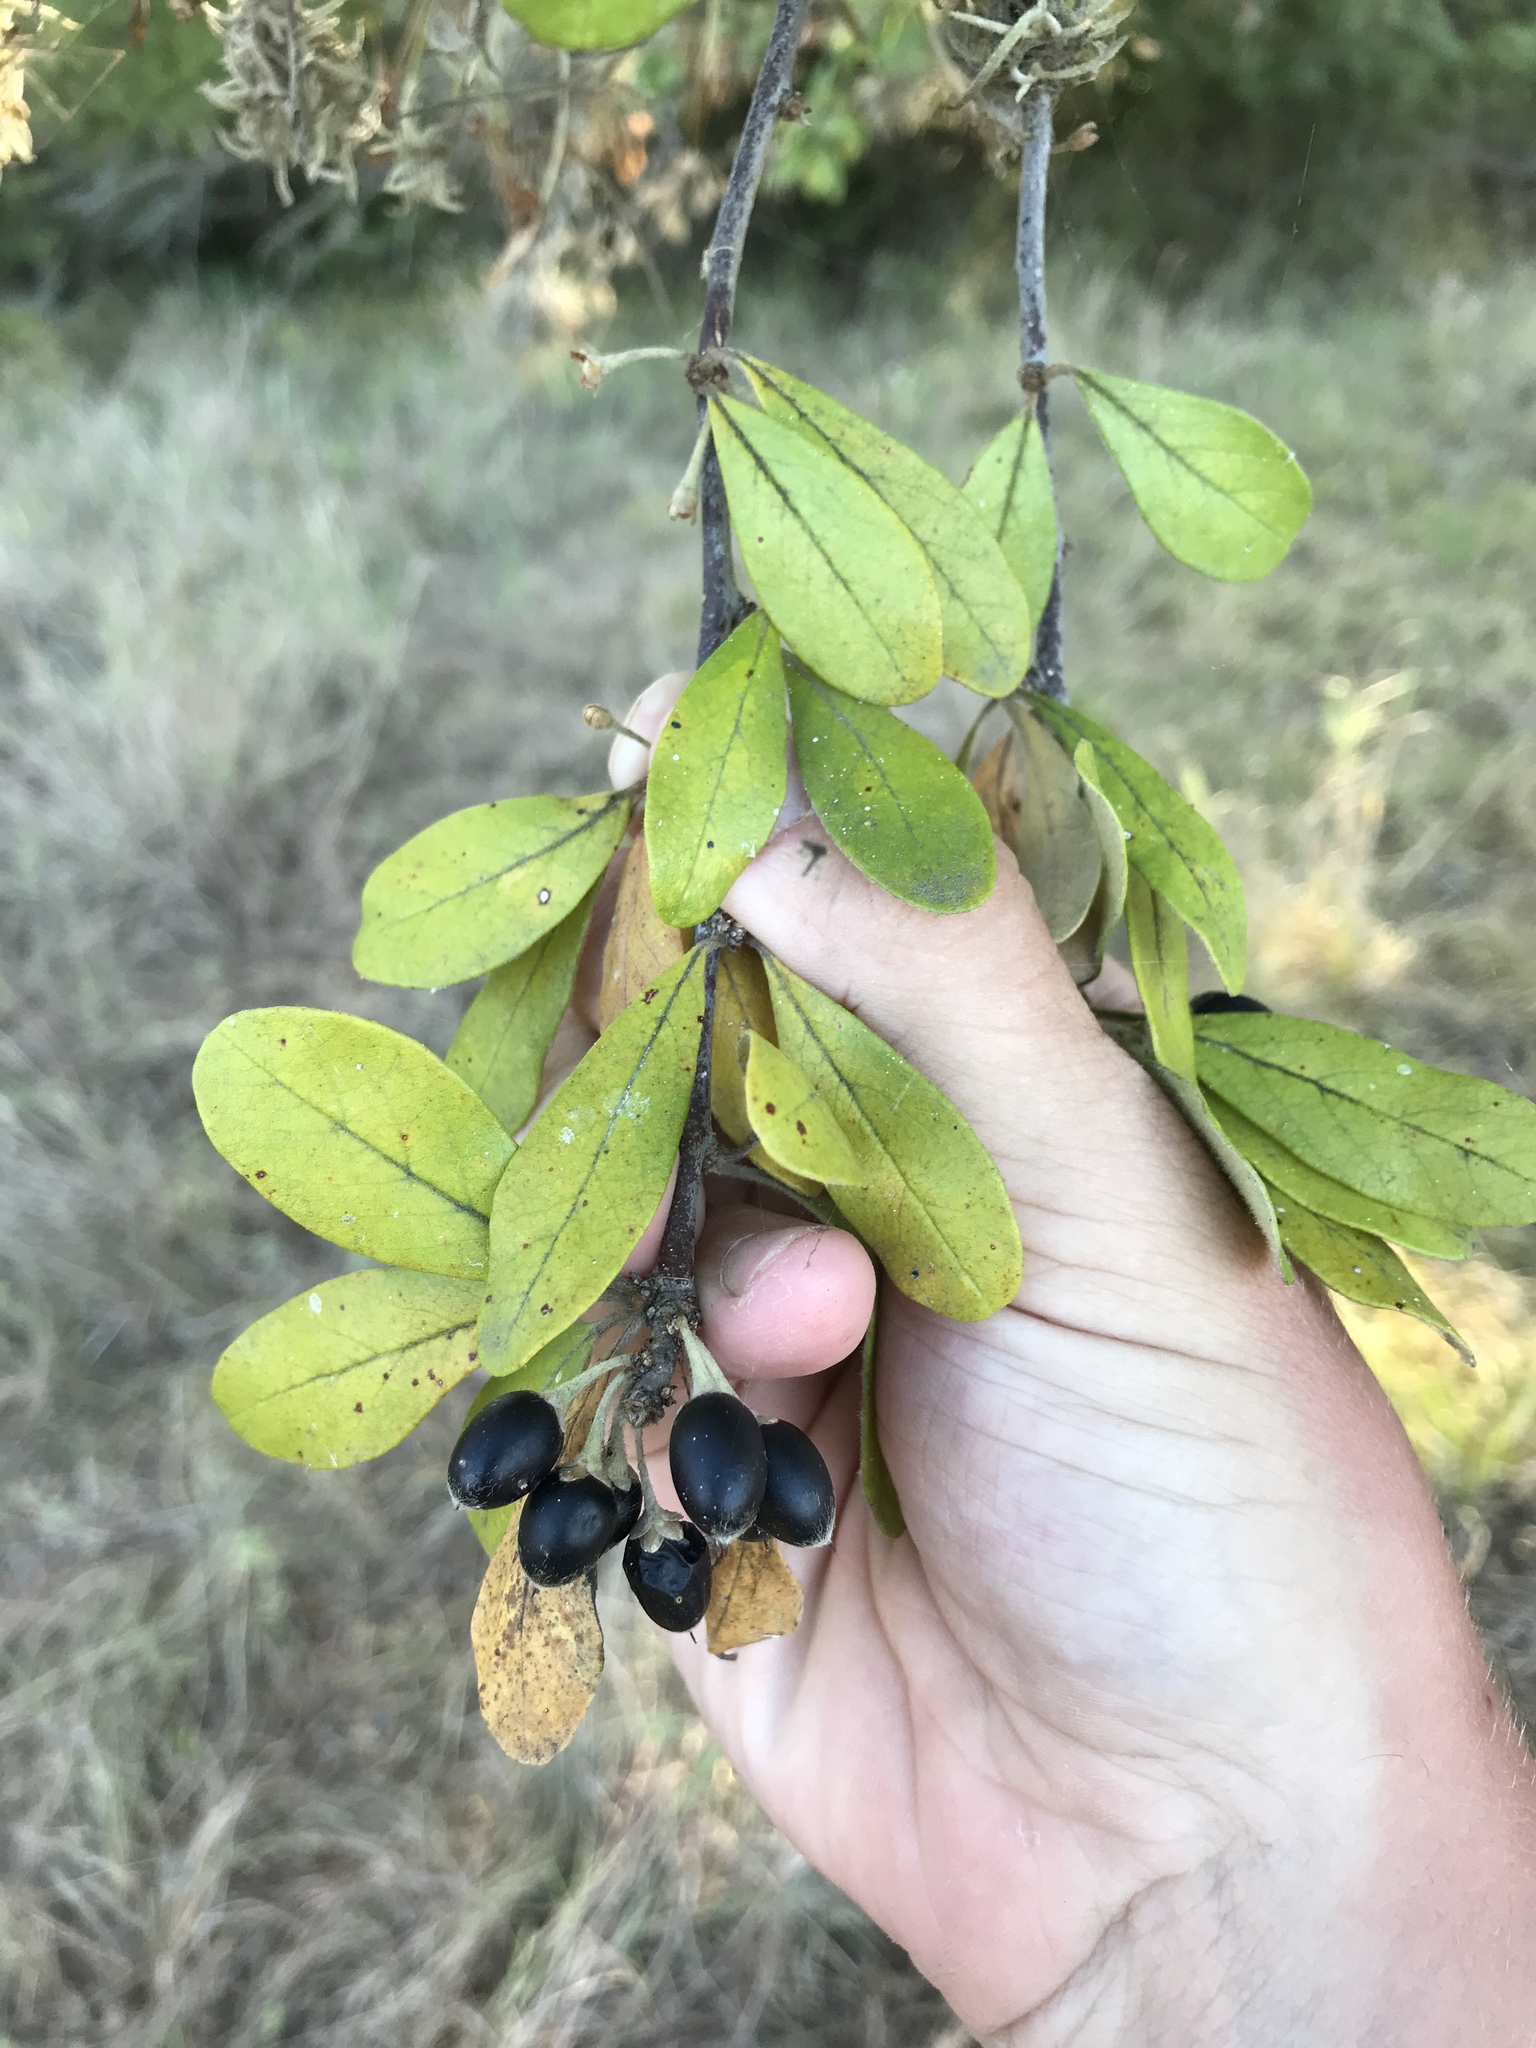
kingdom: Plantae
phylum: Tracheophyta
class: Magnoliopsida
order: Ericales
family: Sapotaceae
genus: Sideroxylon
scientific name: Sideroxylon lanuginosum
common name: Chittamwood
